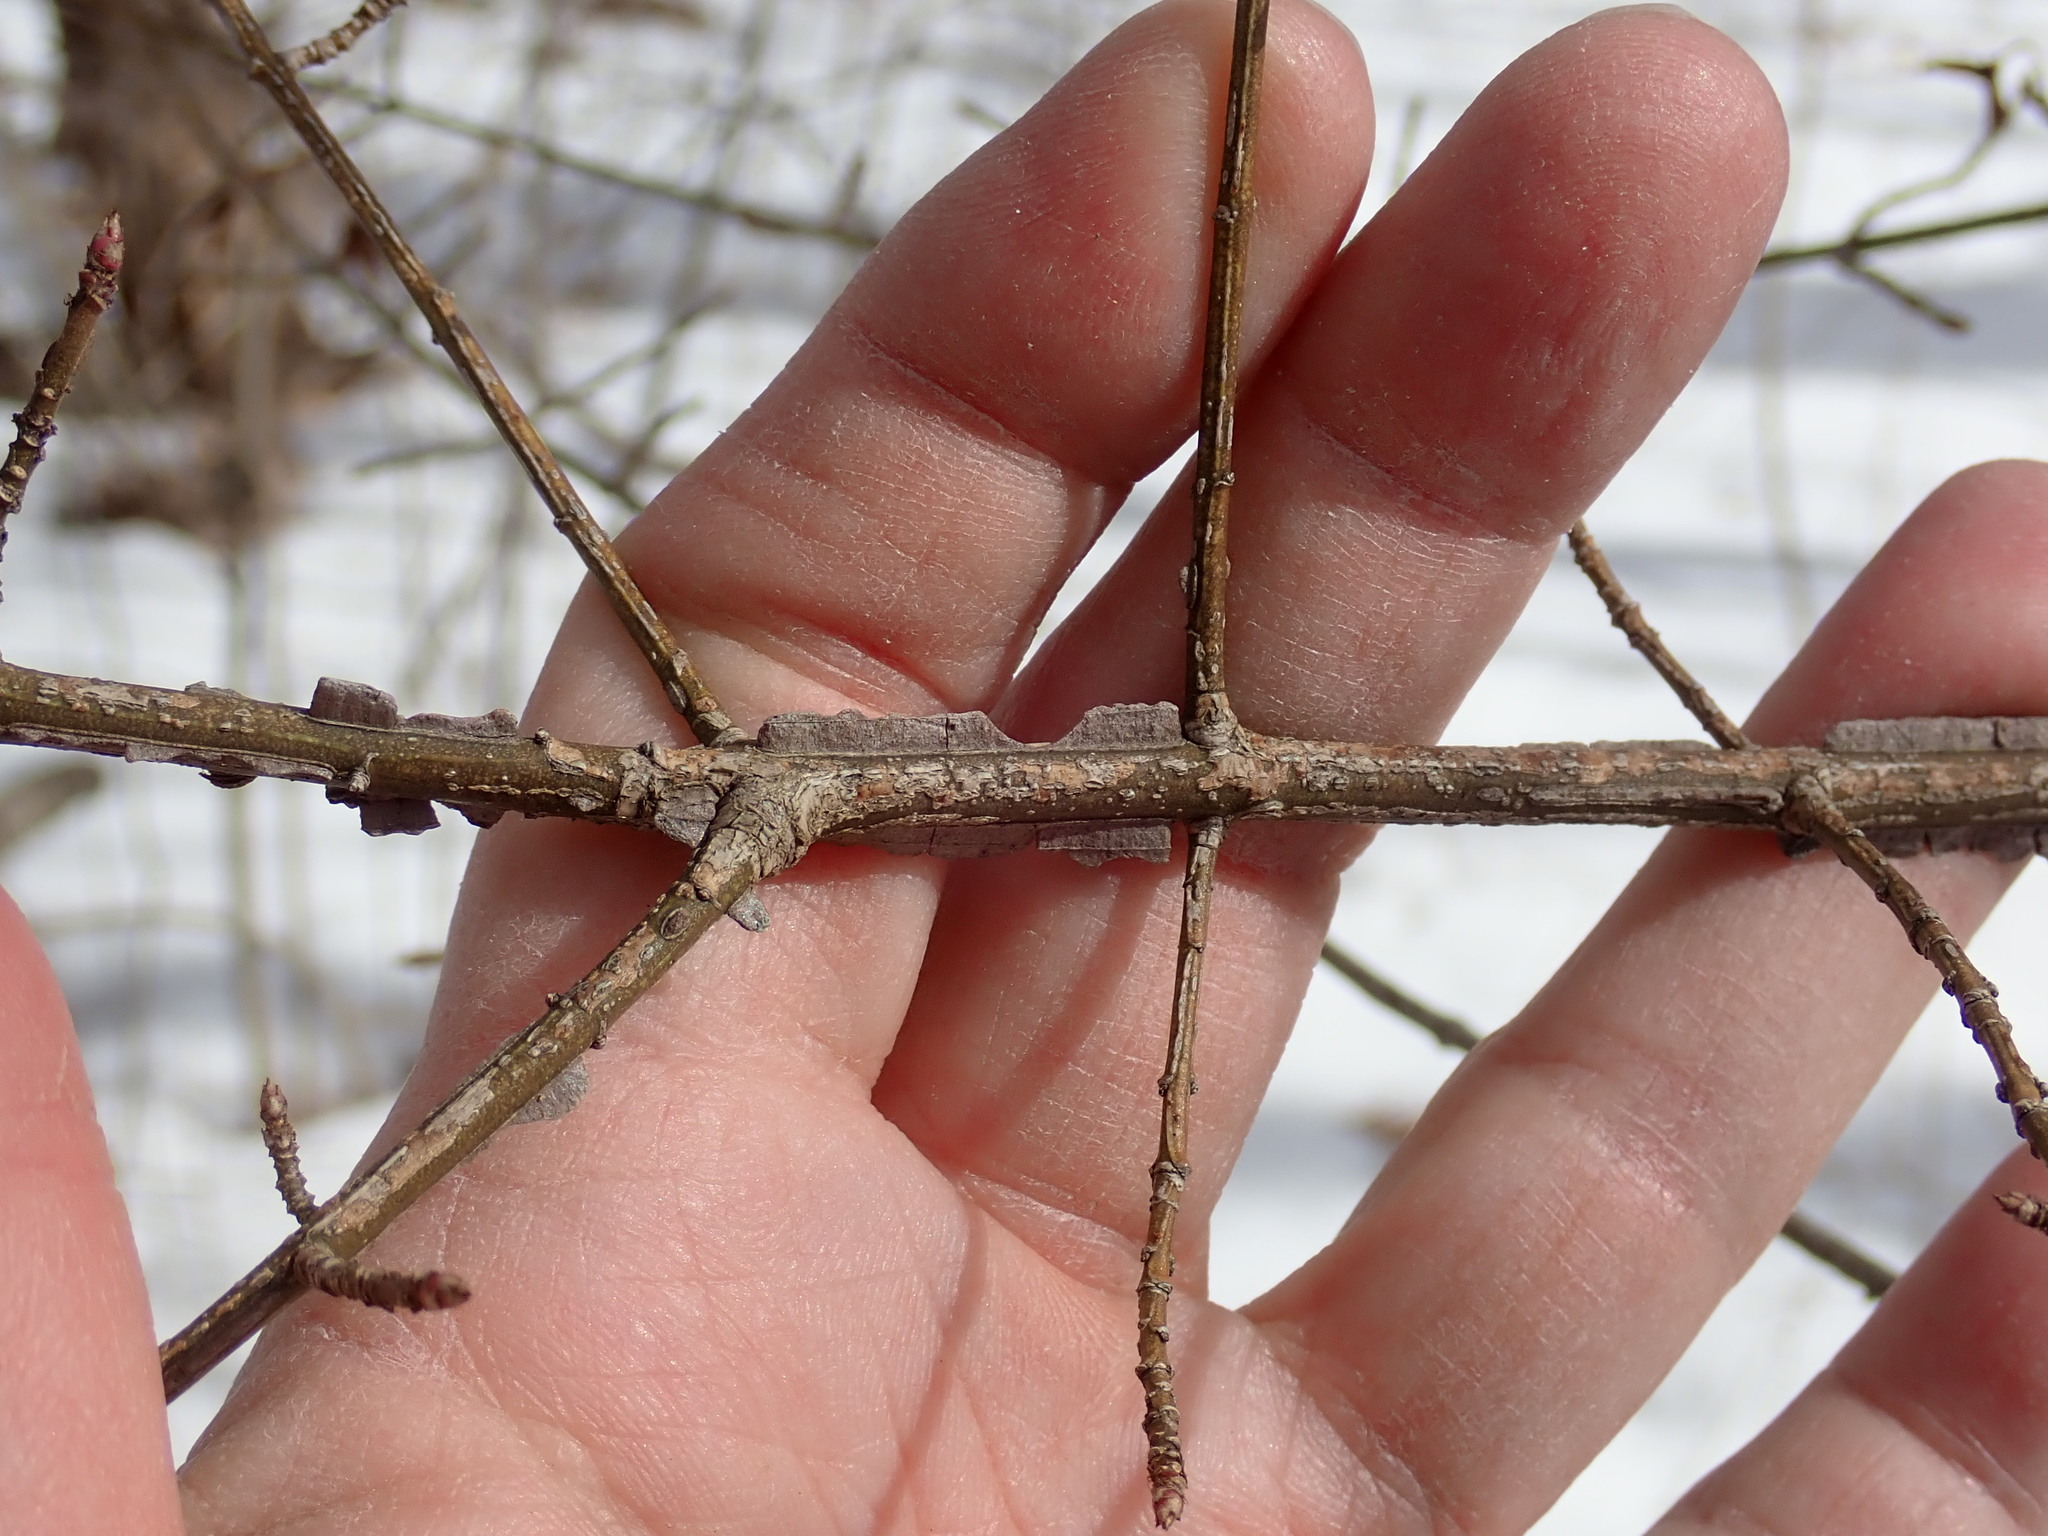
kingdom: Plantae
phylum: Tracheophyta
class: Magnoliopsida
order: Celastrales
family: Celastraceae
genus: Euonymus
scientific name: Euonymus alatus
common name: Winged euonymus
